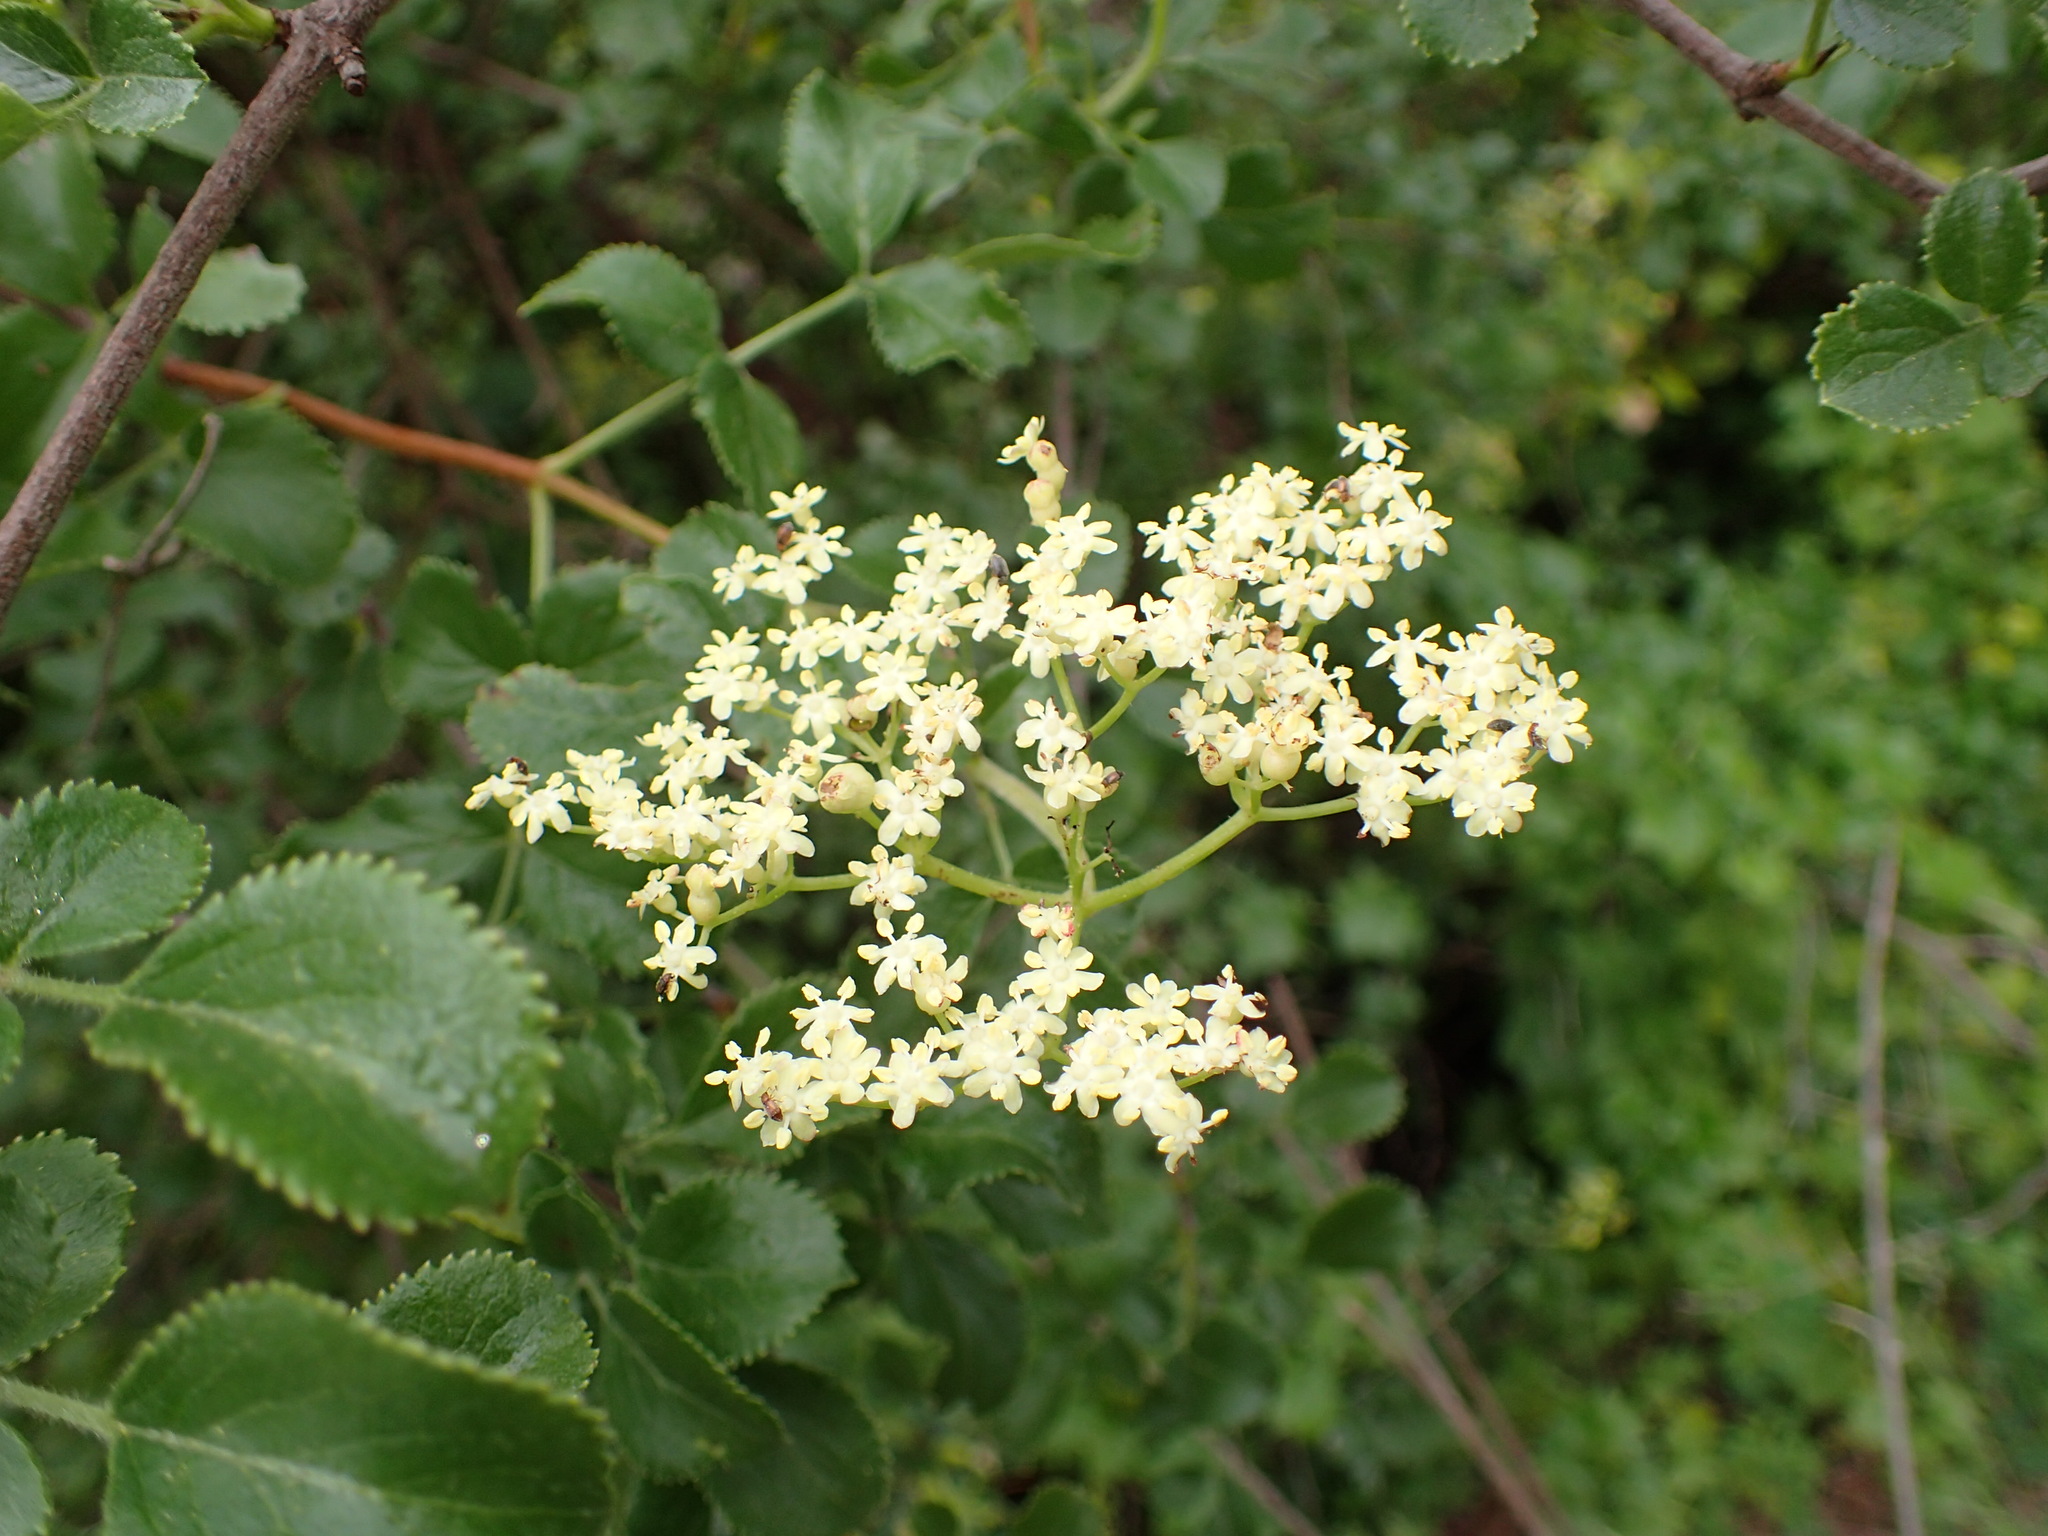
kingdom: Plantae
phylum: Tracheophyta
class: Magnoliopsida
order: Dipsacales
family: Viburnaceae
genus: Sambucus
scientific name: Sambucus cerulea
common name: Blue elder
